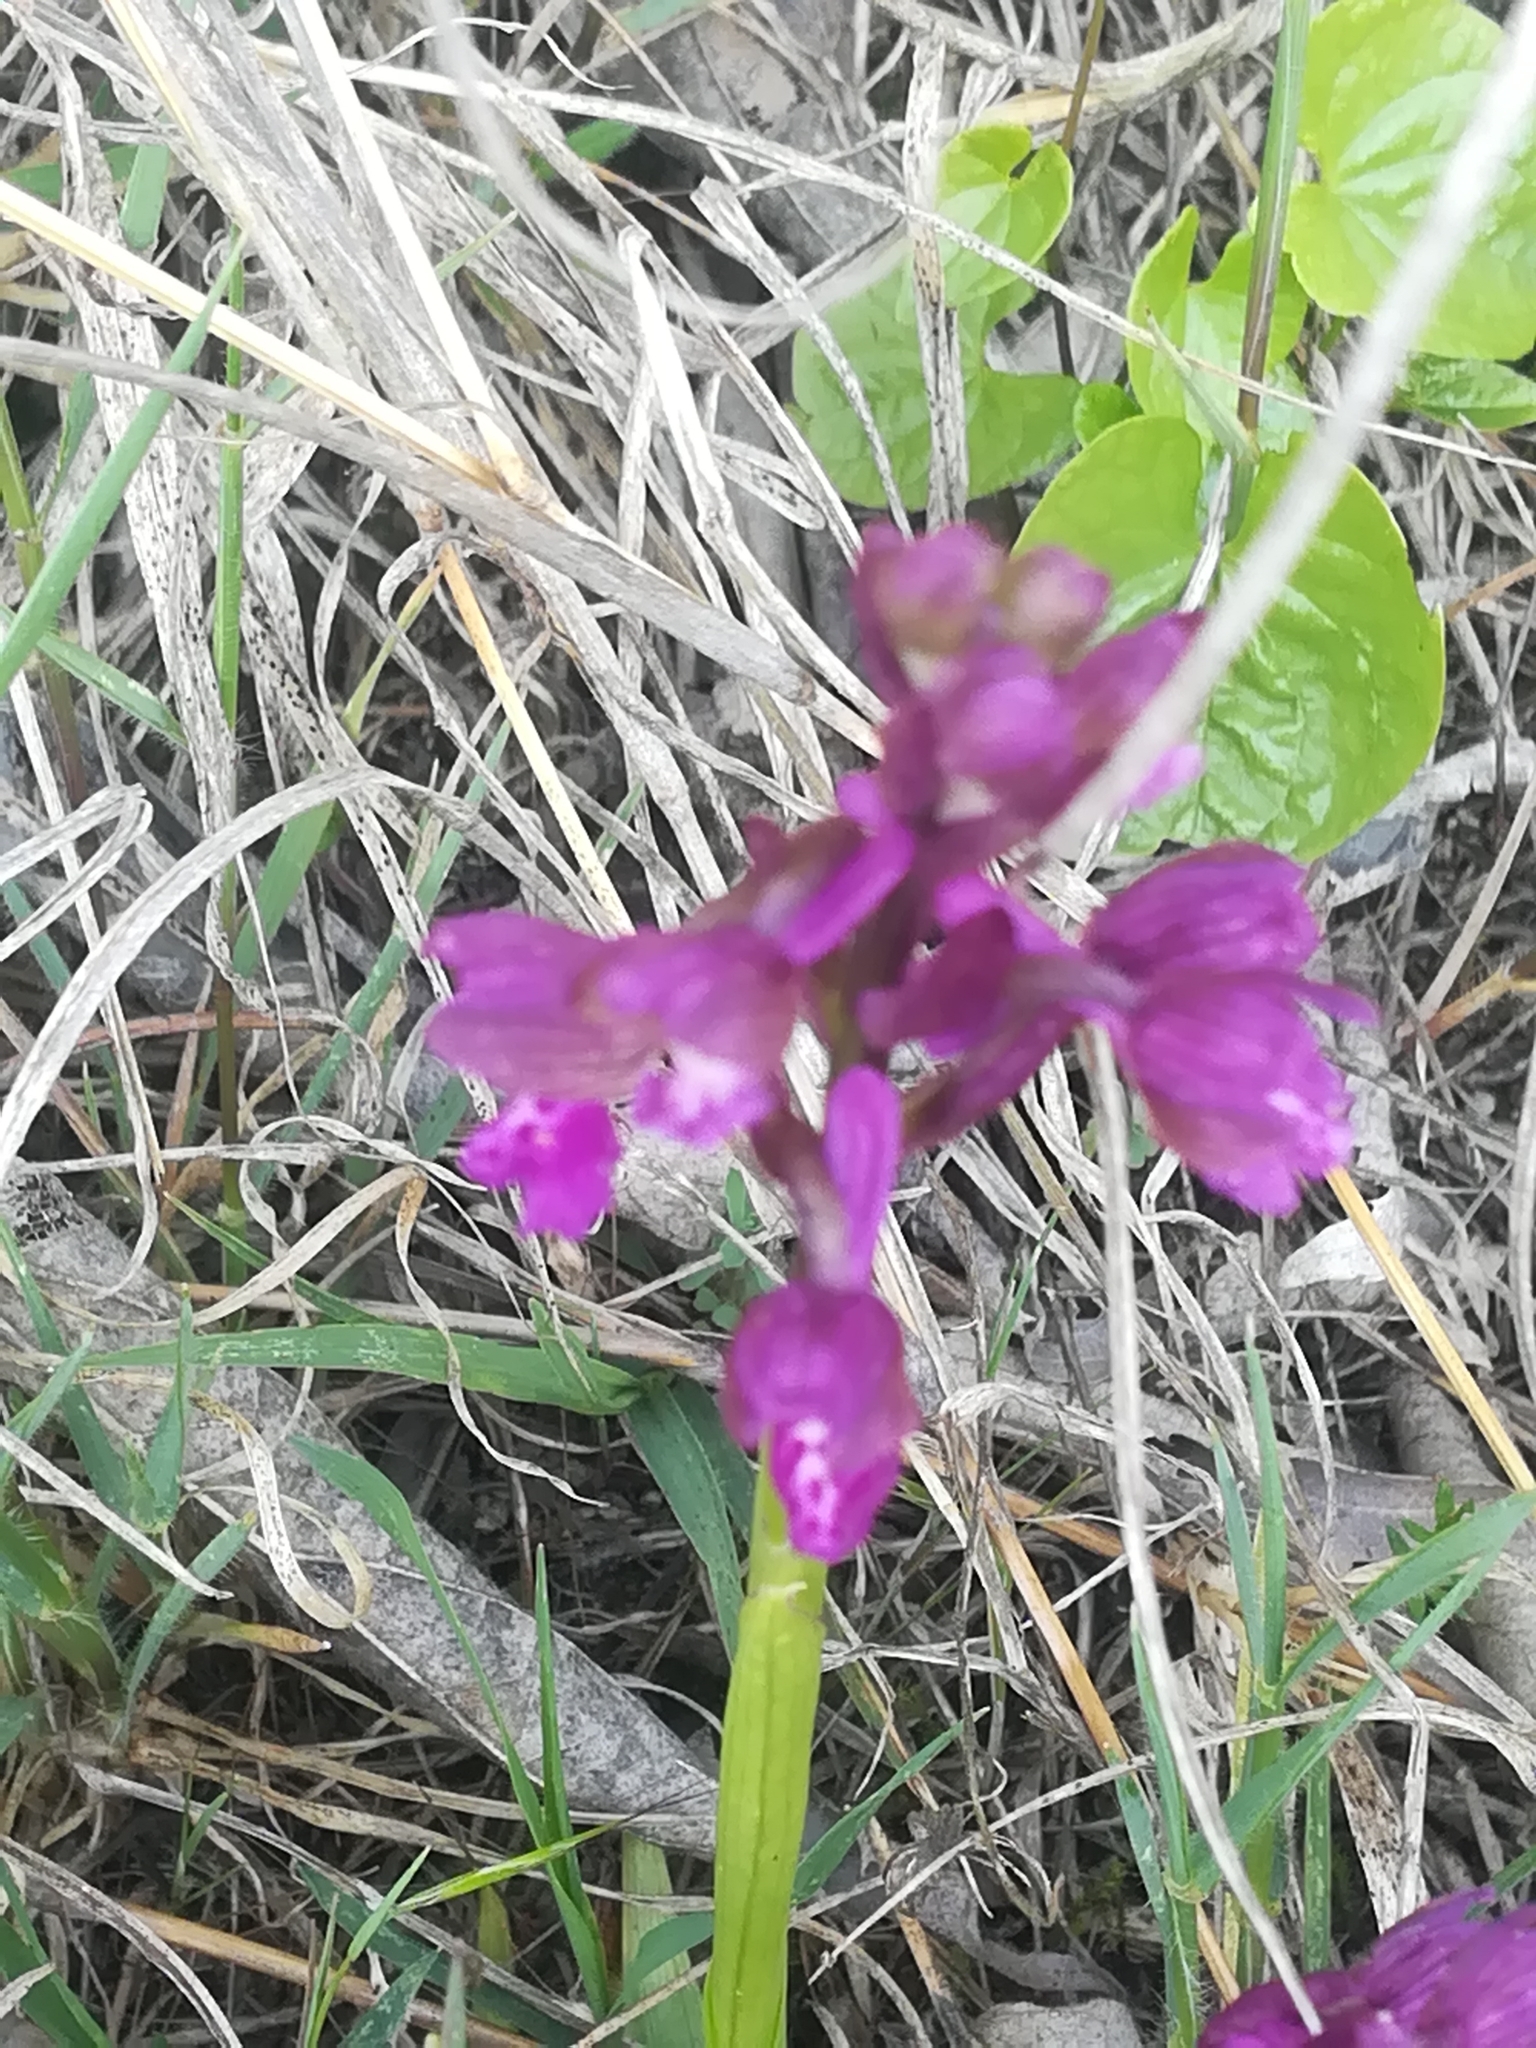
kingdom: Plantae
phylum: Tracheophyta
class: Liliopsida
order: Asparagales
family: Orchidaceae
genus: Anacamptis
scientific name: Anacamptis morio
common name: Green-winged orchid
